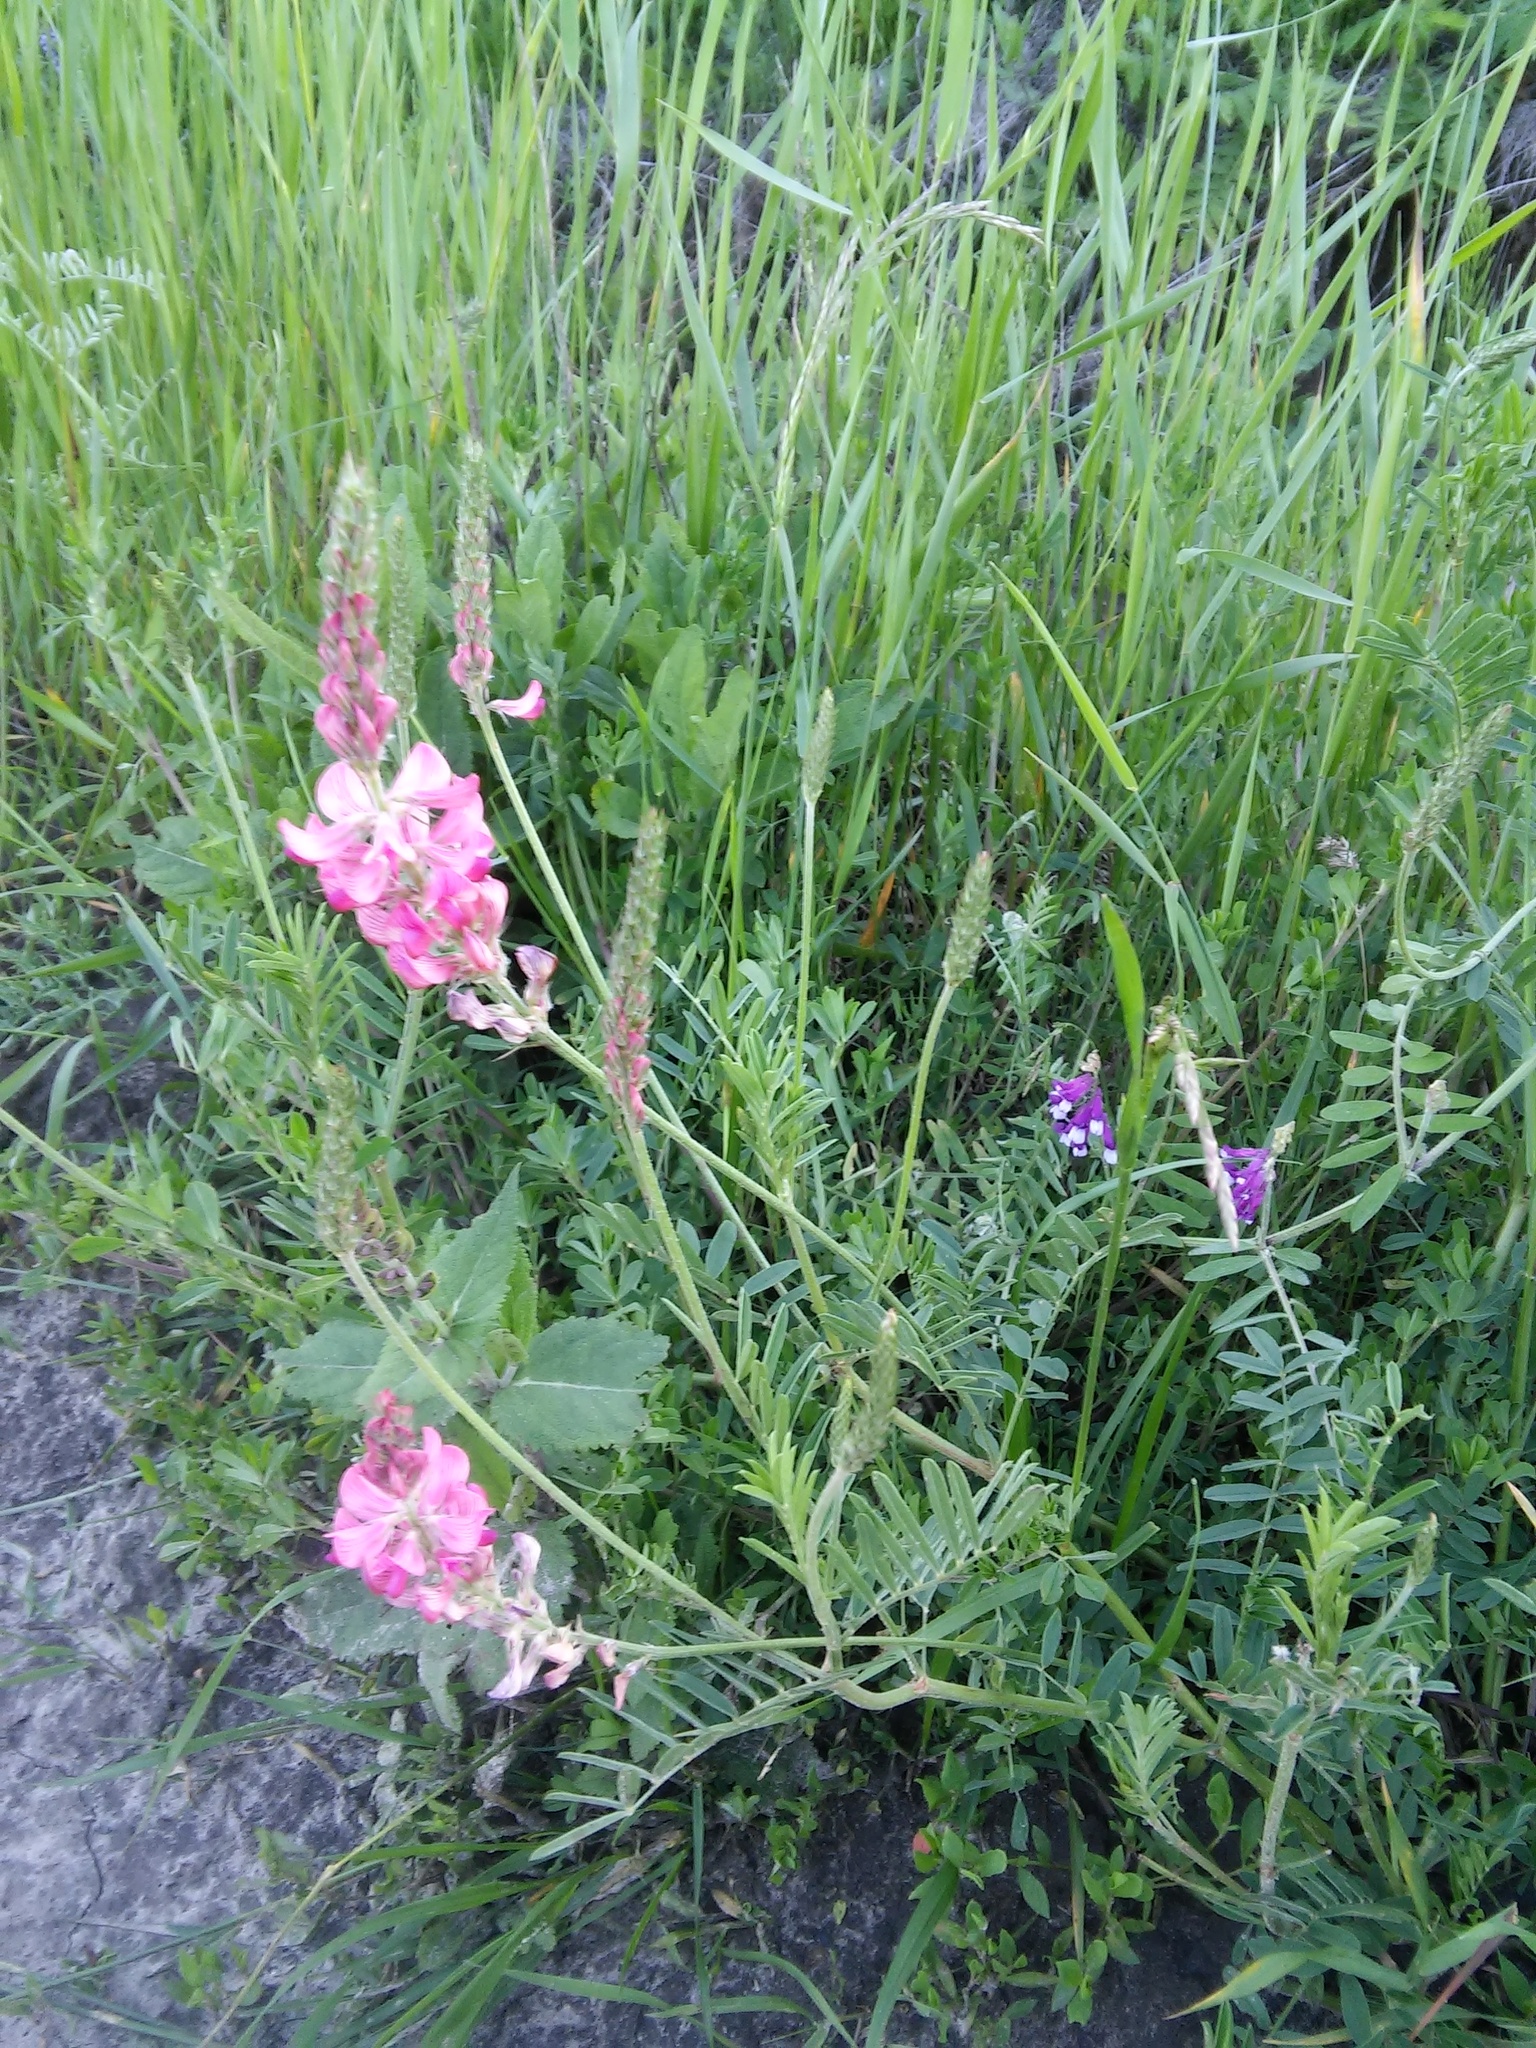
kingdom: Plantae
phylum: Tracheophyta
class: Magnoliopsida
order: Fabales
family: Fabaceae
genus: Onobrychis
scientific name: Onobrychis viciifolia
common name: Sainfoin
